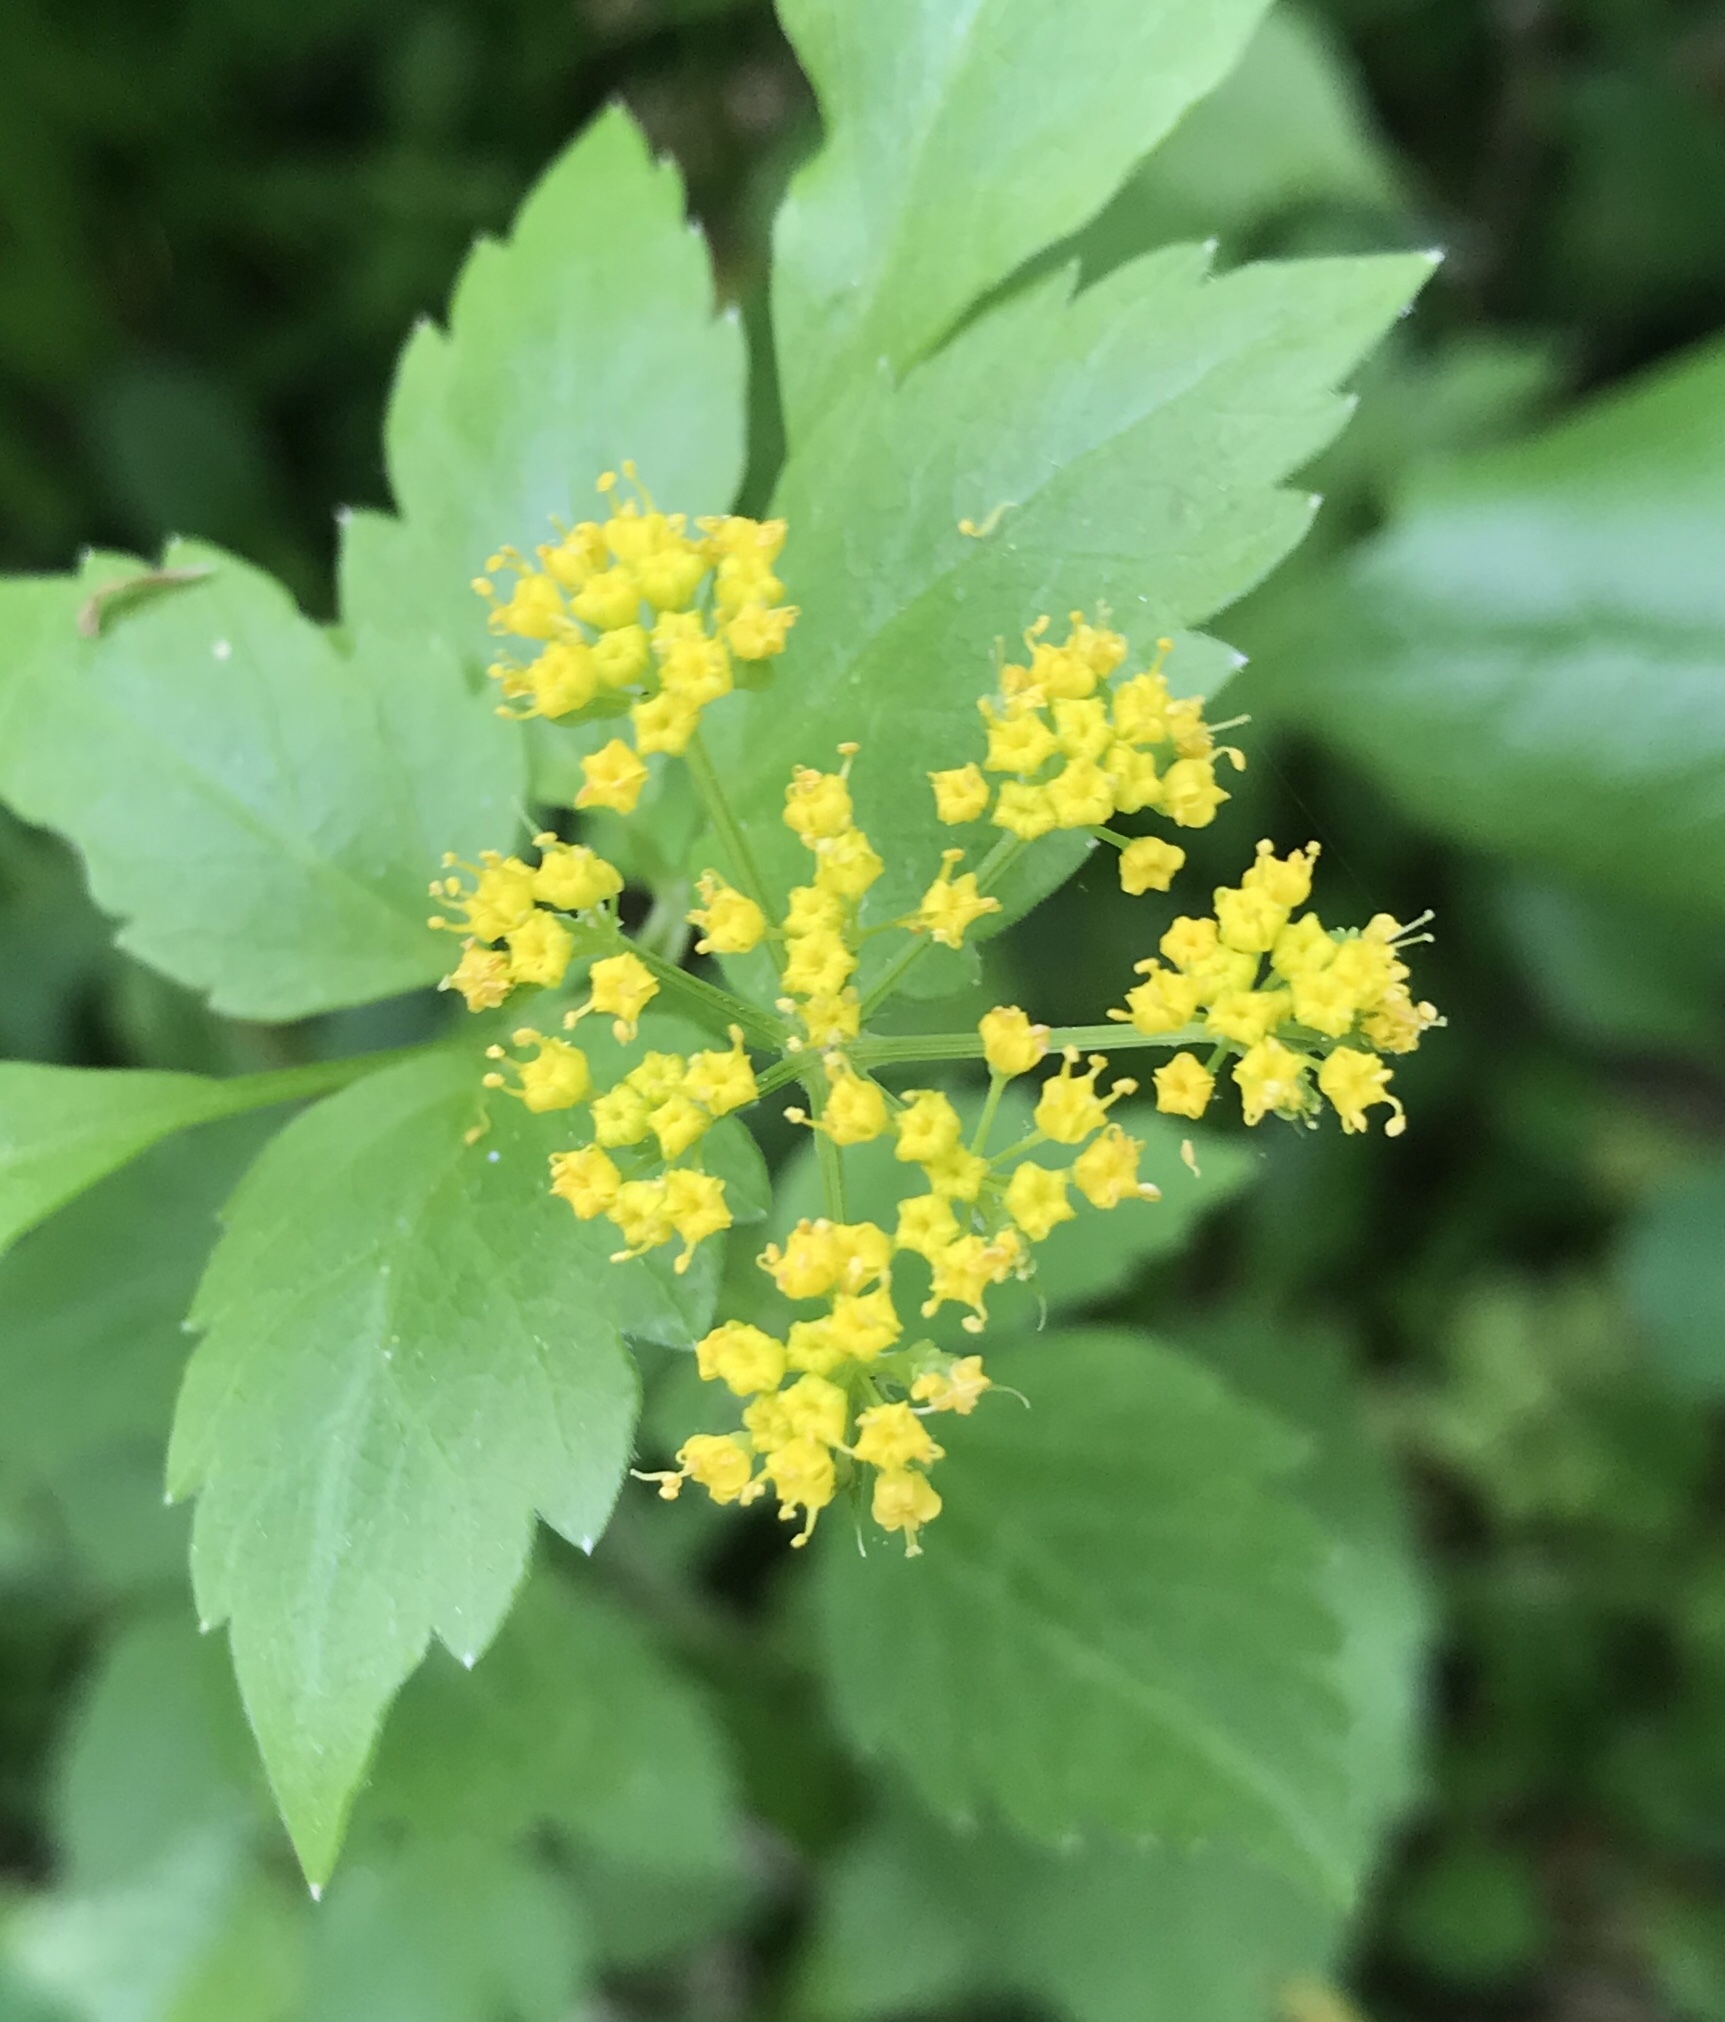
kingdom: Plantae
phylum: Tracheophyta
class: Magnoliopsida
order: Apiales
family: Apiaceae
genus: Zizia
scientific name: Zizia aurea
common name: Golden alexanders
